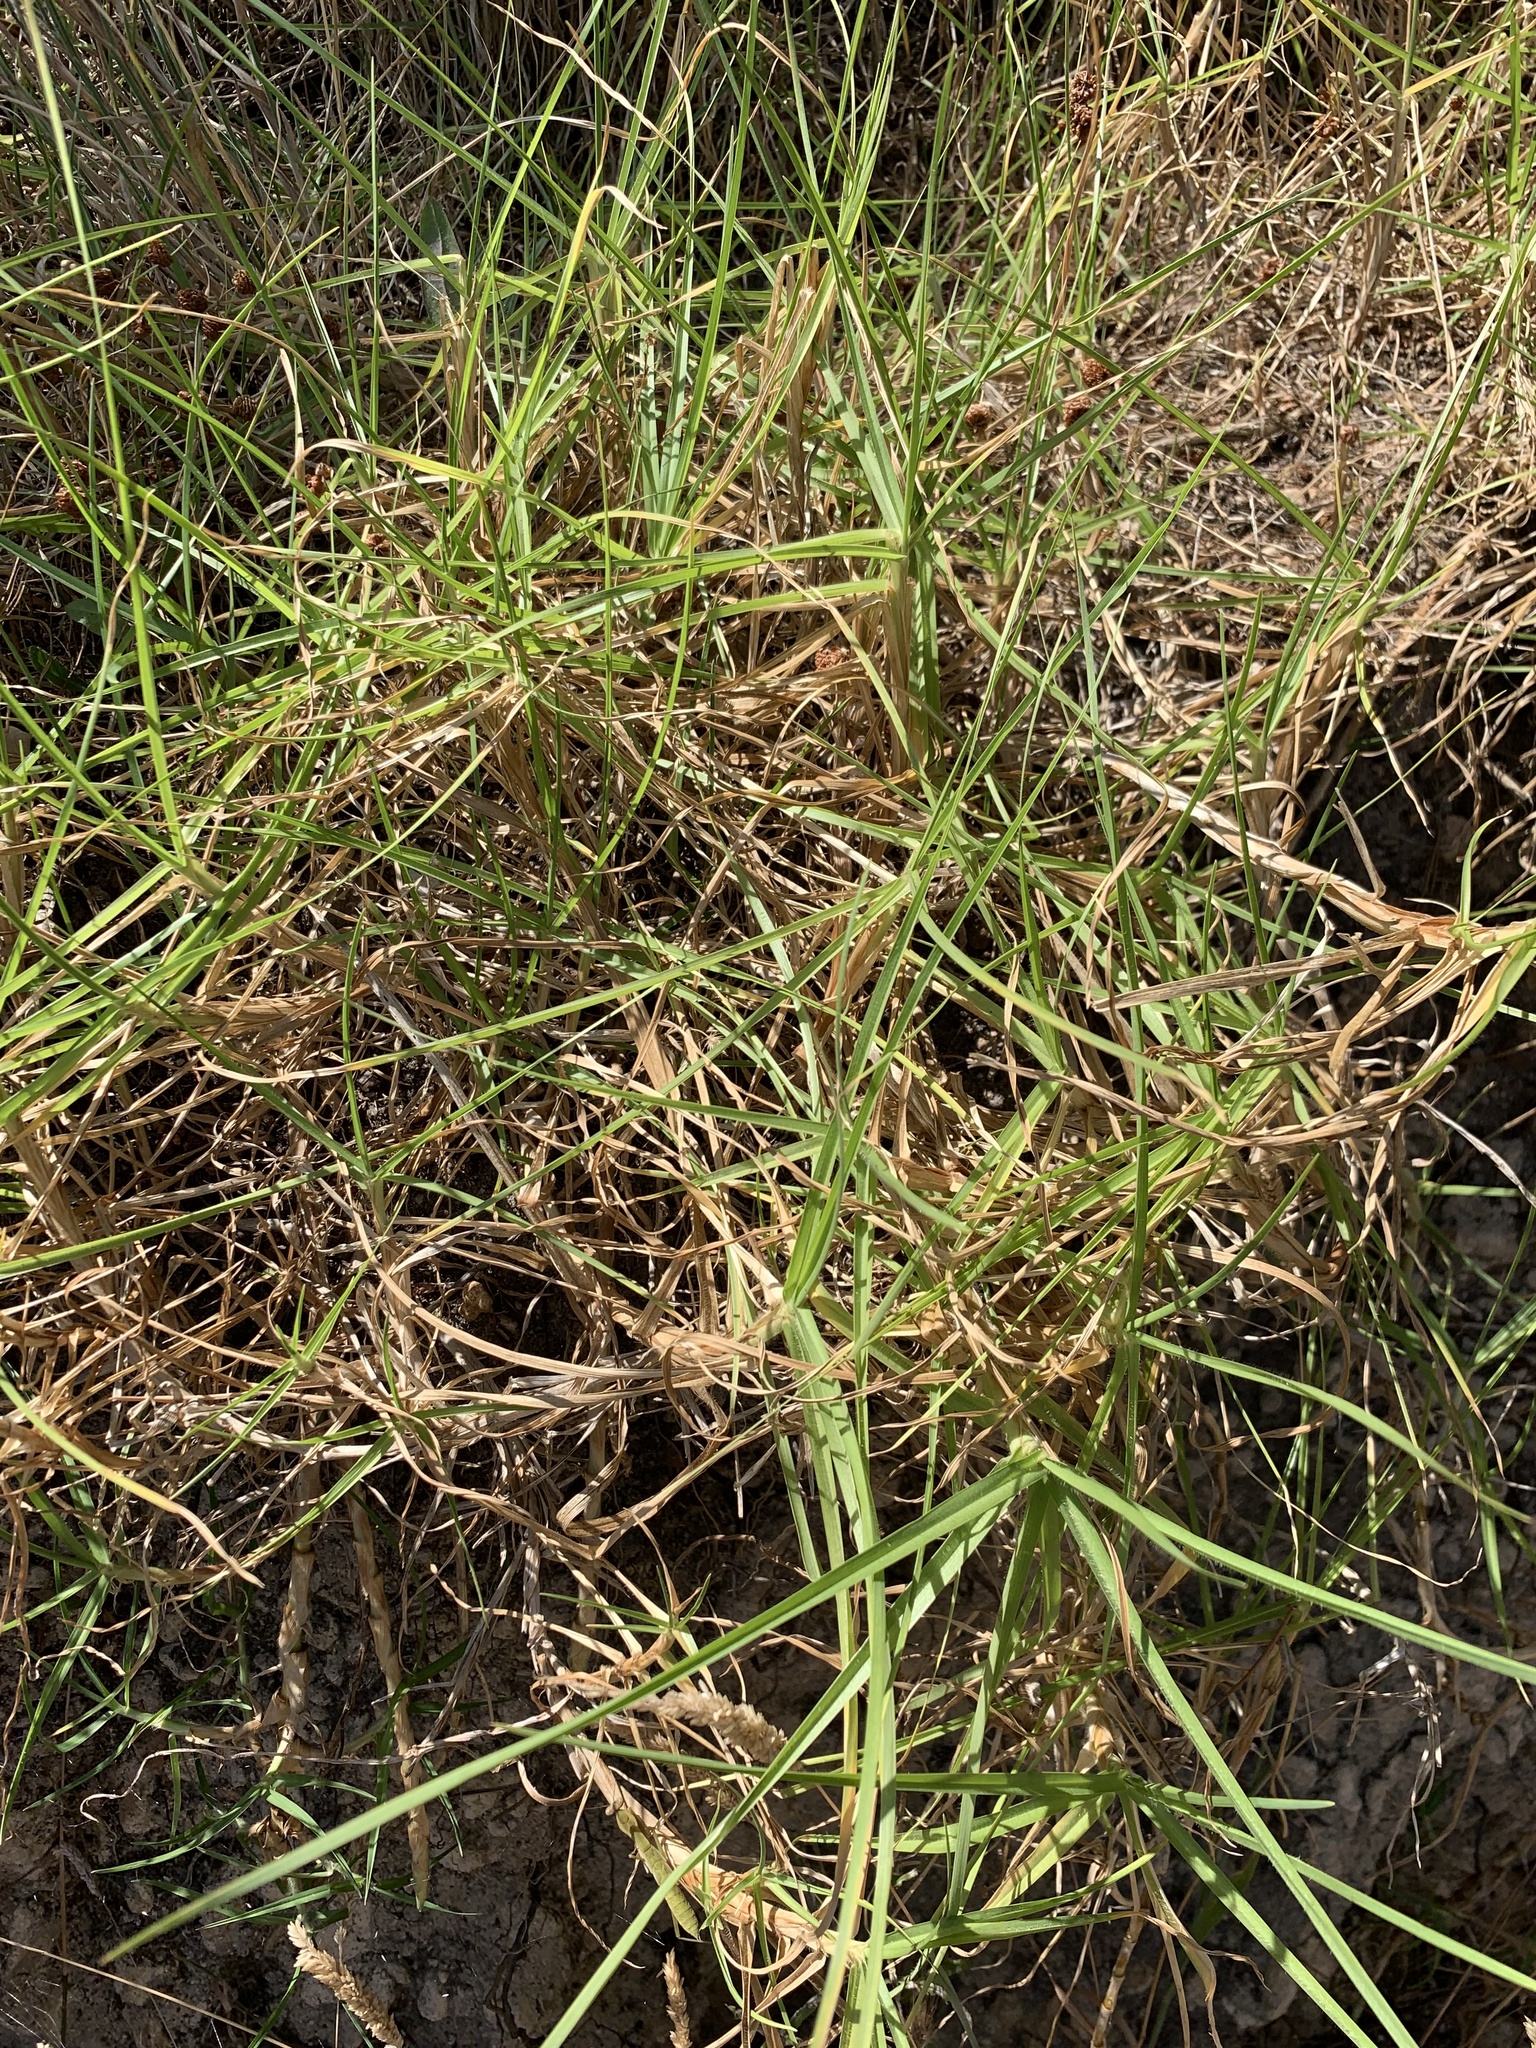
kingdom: Plantae
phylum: Tracheophyta
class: Liliopsida
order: Poales
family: Poaceae
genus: Cenchrus
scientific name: Cenchrus clandestinus
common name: Kikuyugrass
